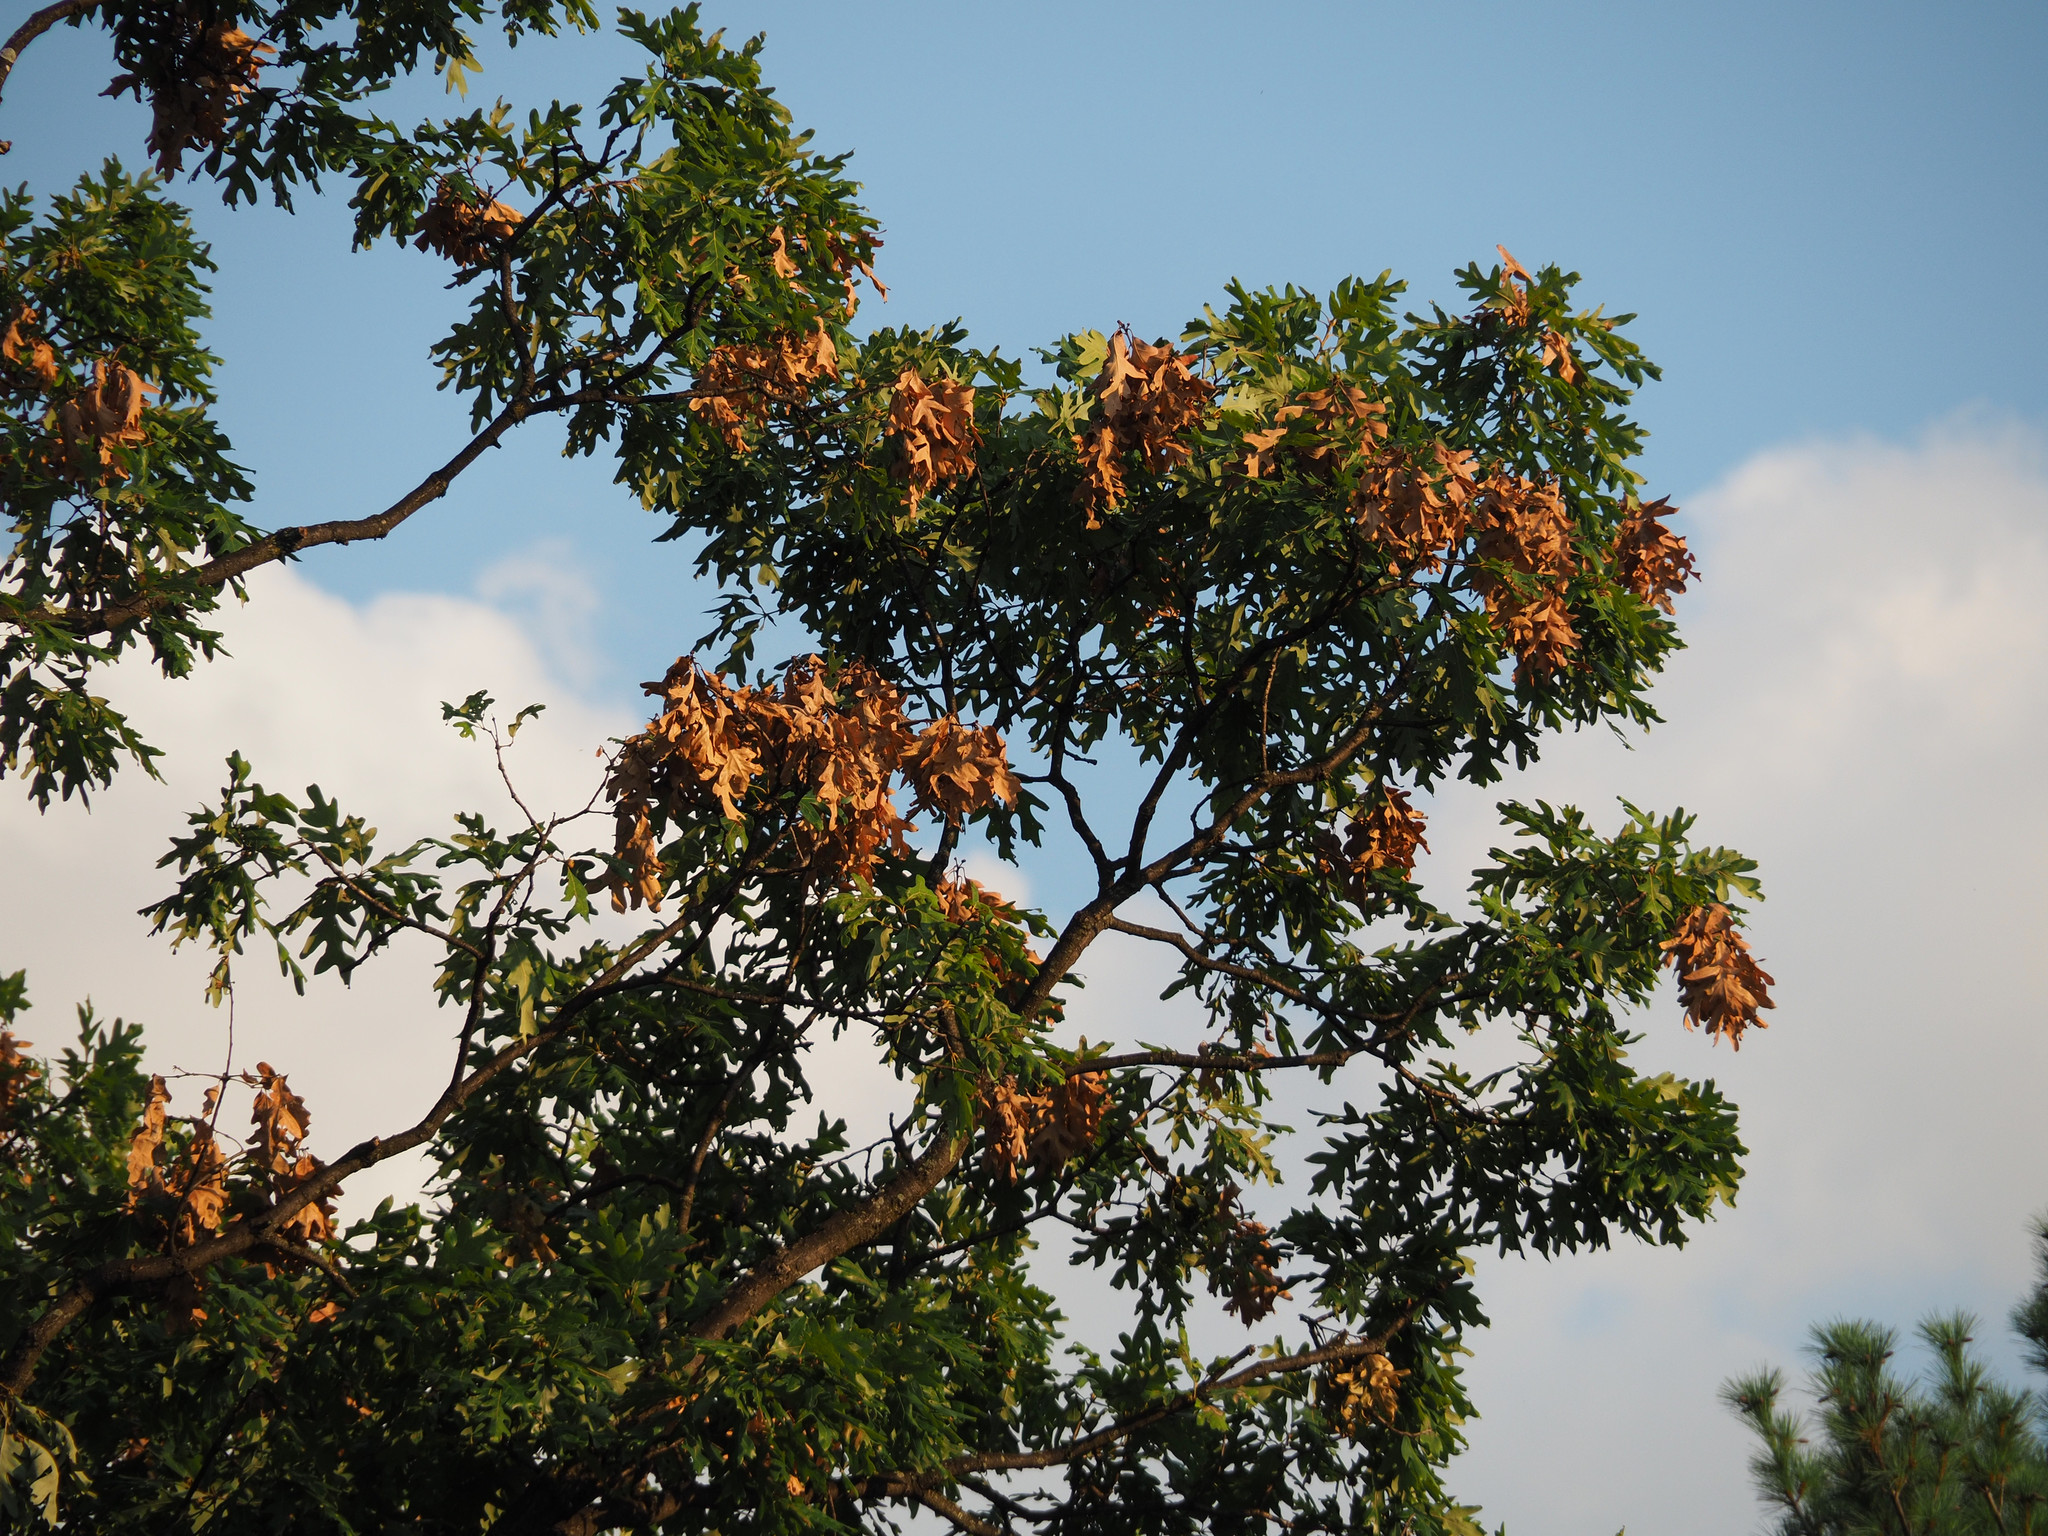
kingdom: Animalia
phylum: Arthropoda
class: Insecta
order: Hemiptera
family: Cicadidae
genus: Magicicada
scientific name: Magicicada
